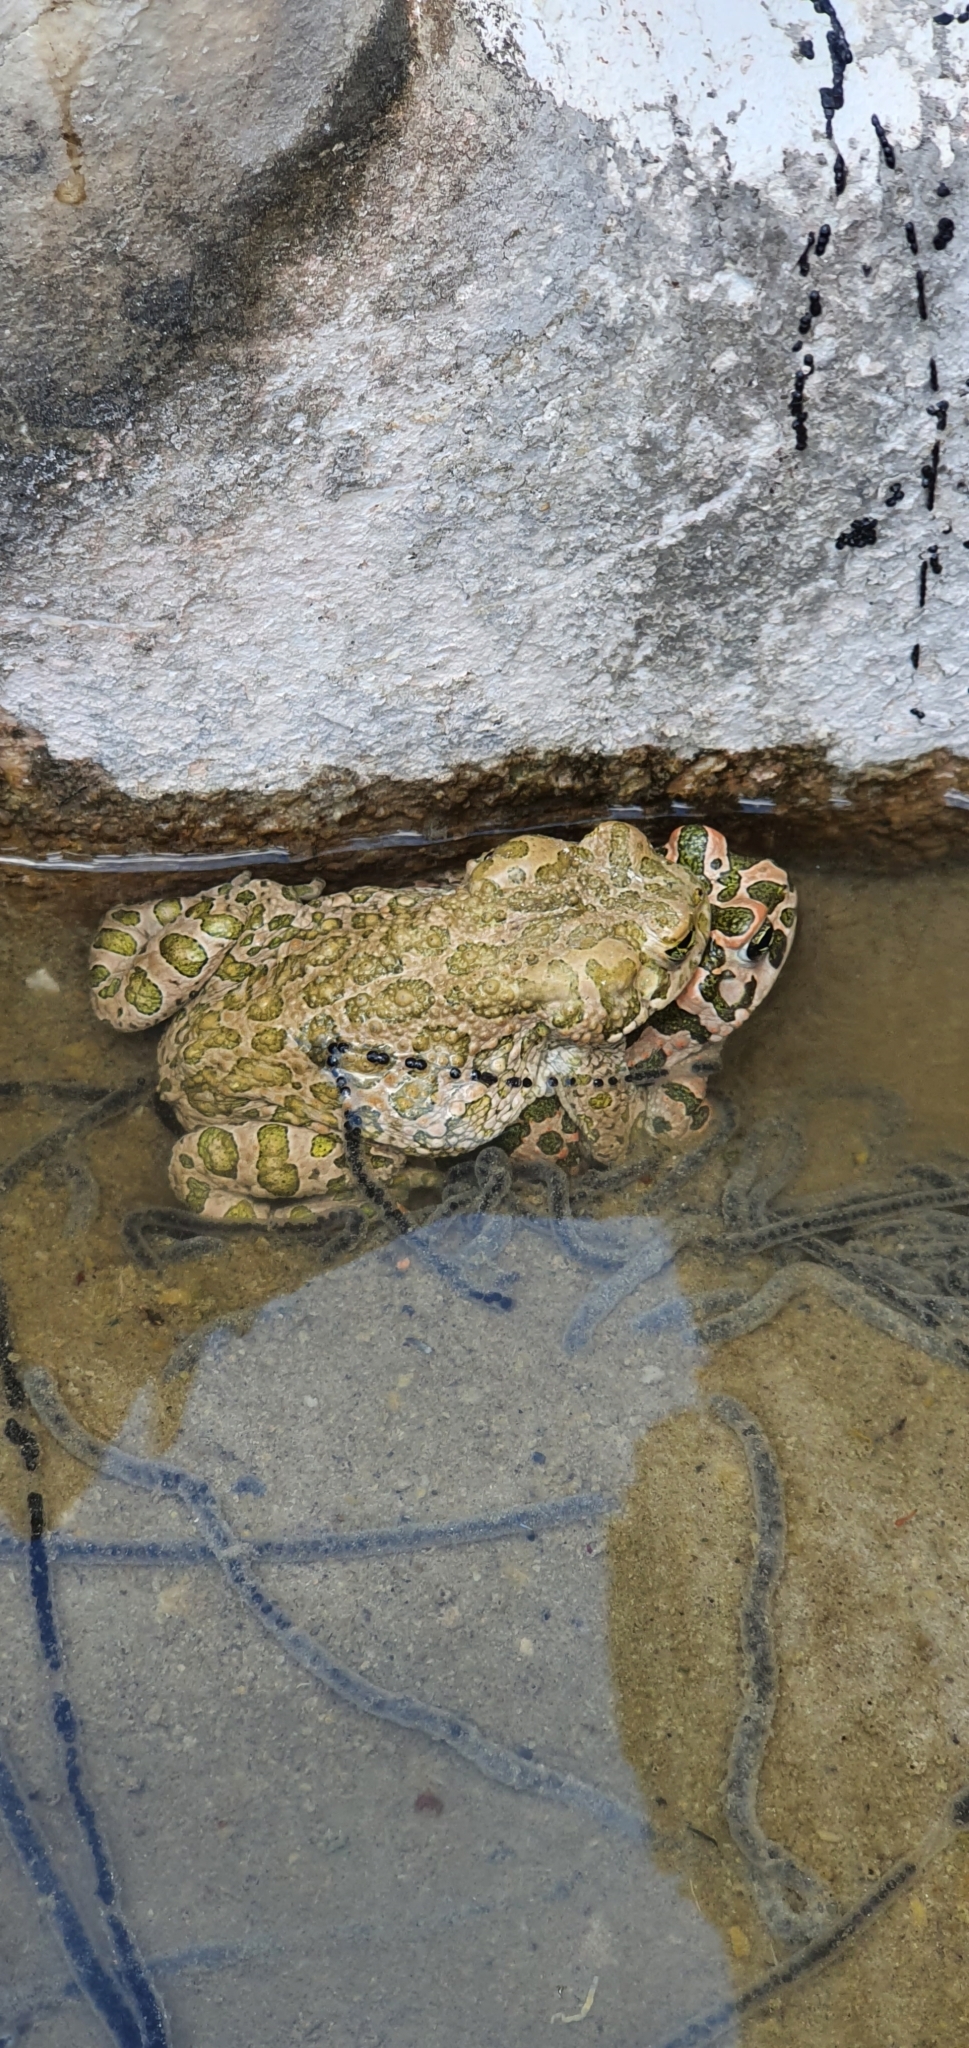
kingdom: Animalia
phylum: Chordata
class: Amphibia
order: Anura
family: Bufonidae
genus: Bufotes
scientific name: Bufotes viridis
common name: European green toad
